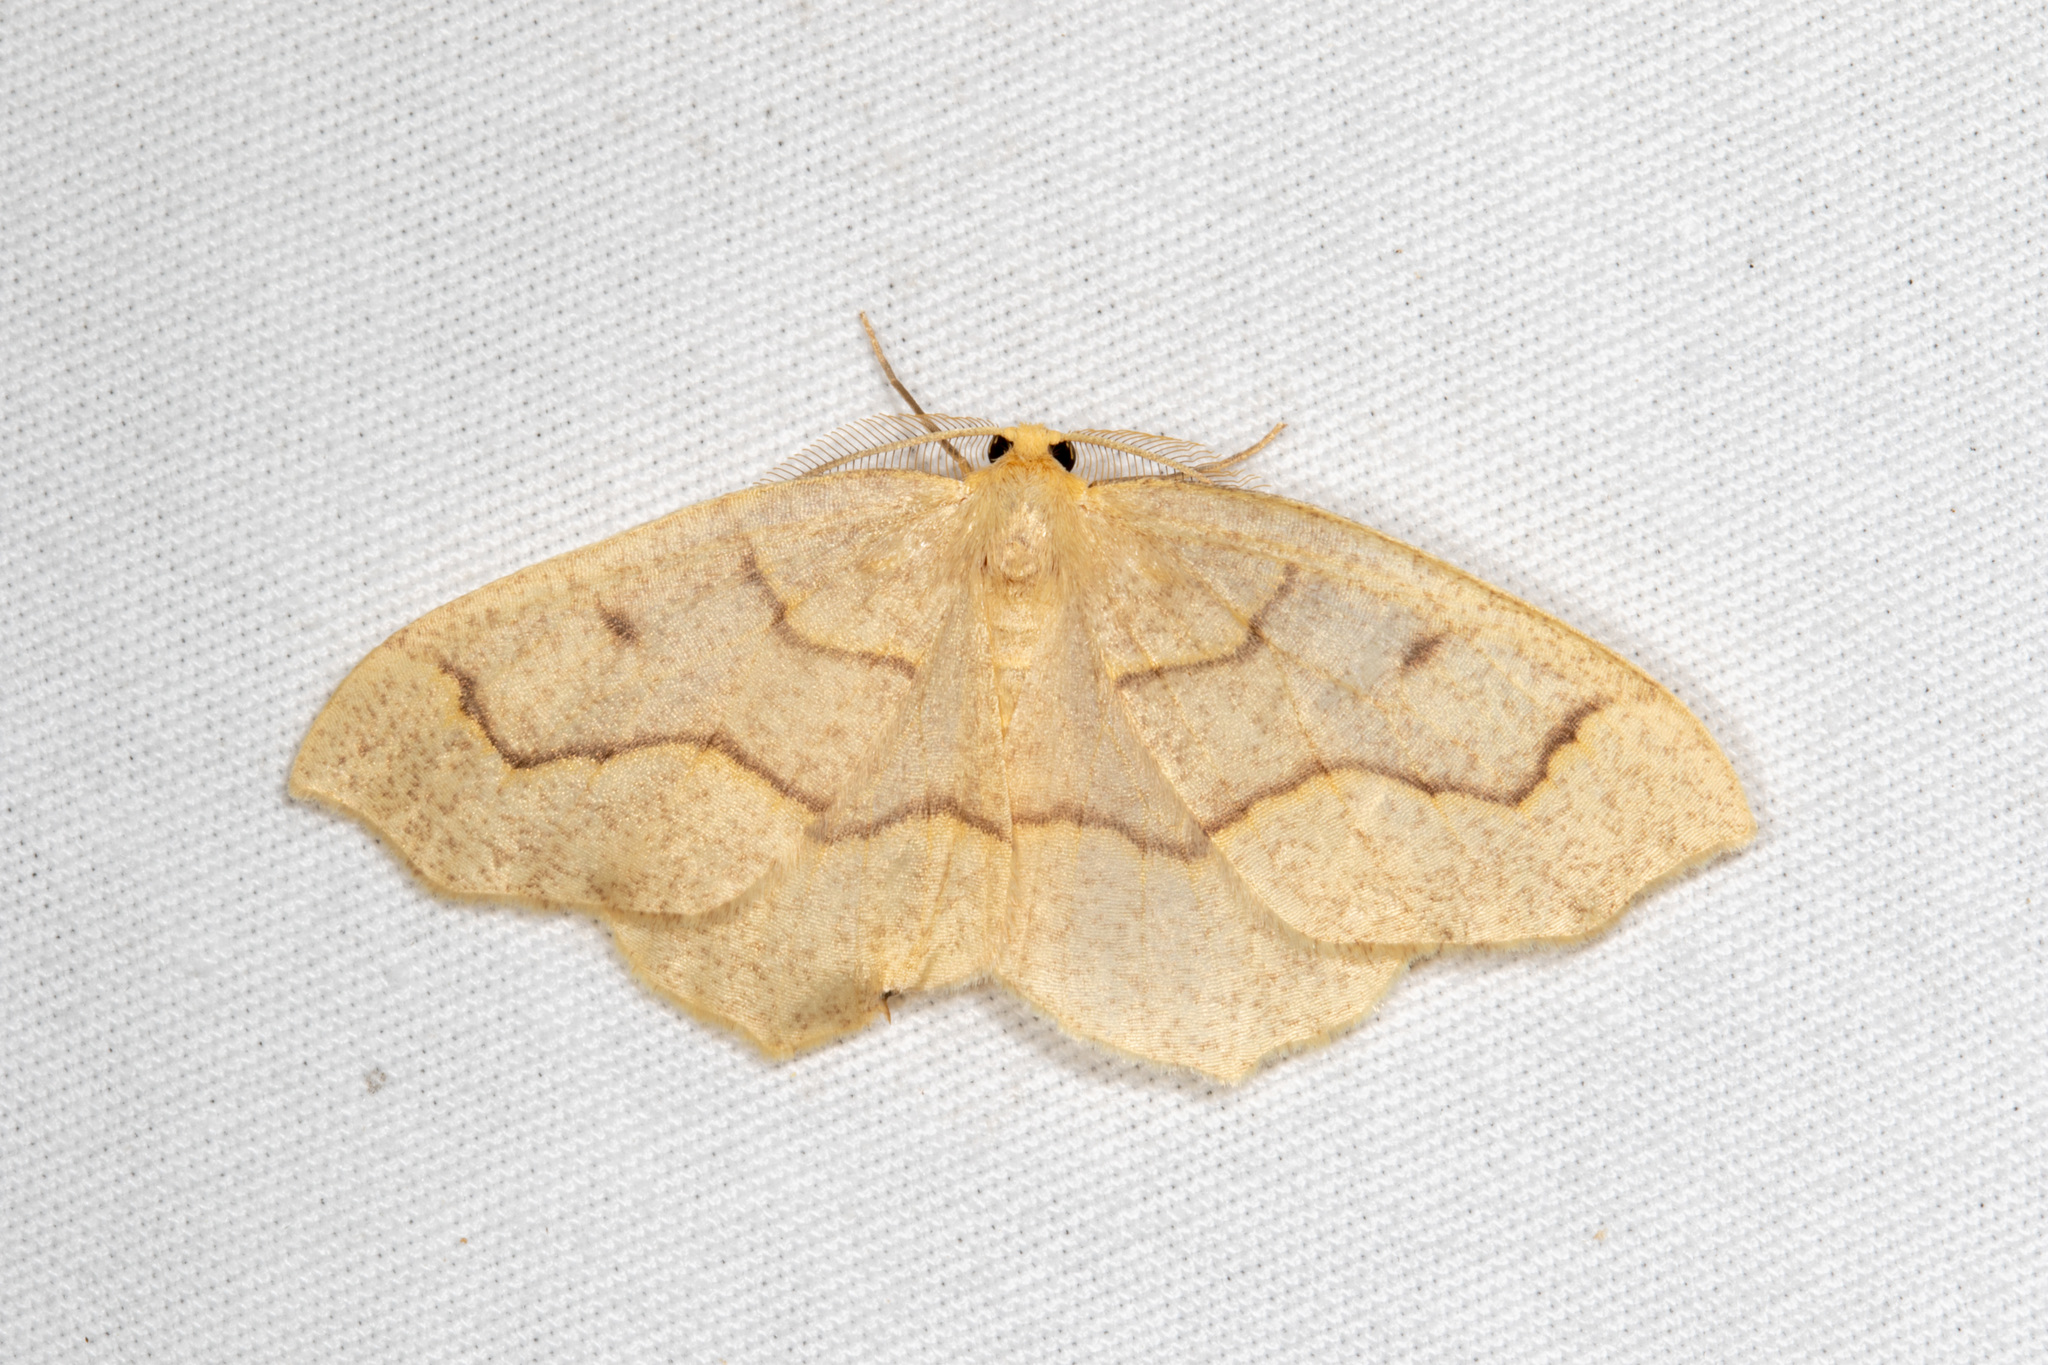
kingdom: Animalia
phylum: Arthropoda
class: Insecta
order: Lepidoptera
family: Geometridae
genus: Lambdina
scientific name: Lambdina fiscellaria
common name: Hemlock looper
